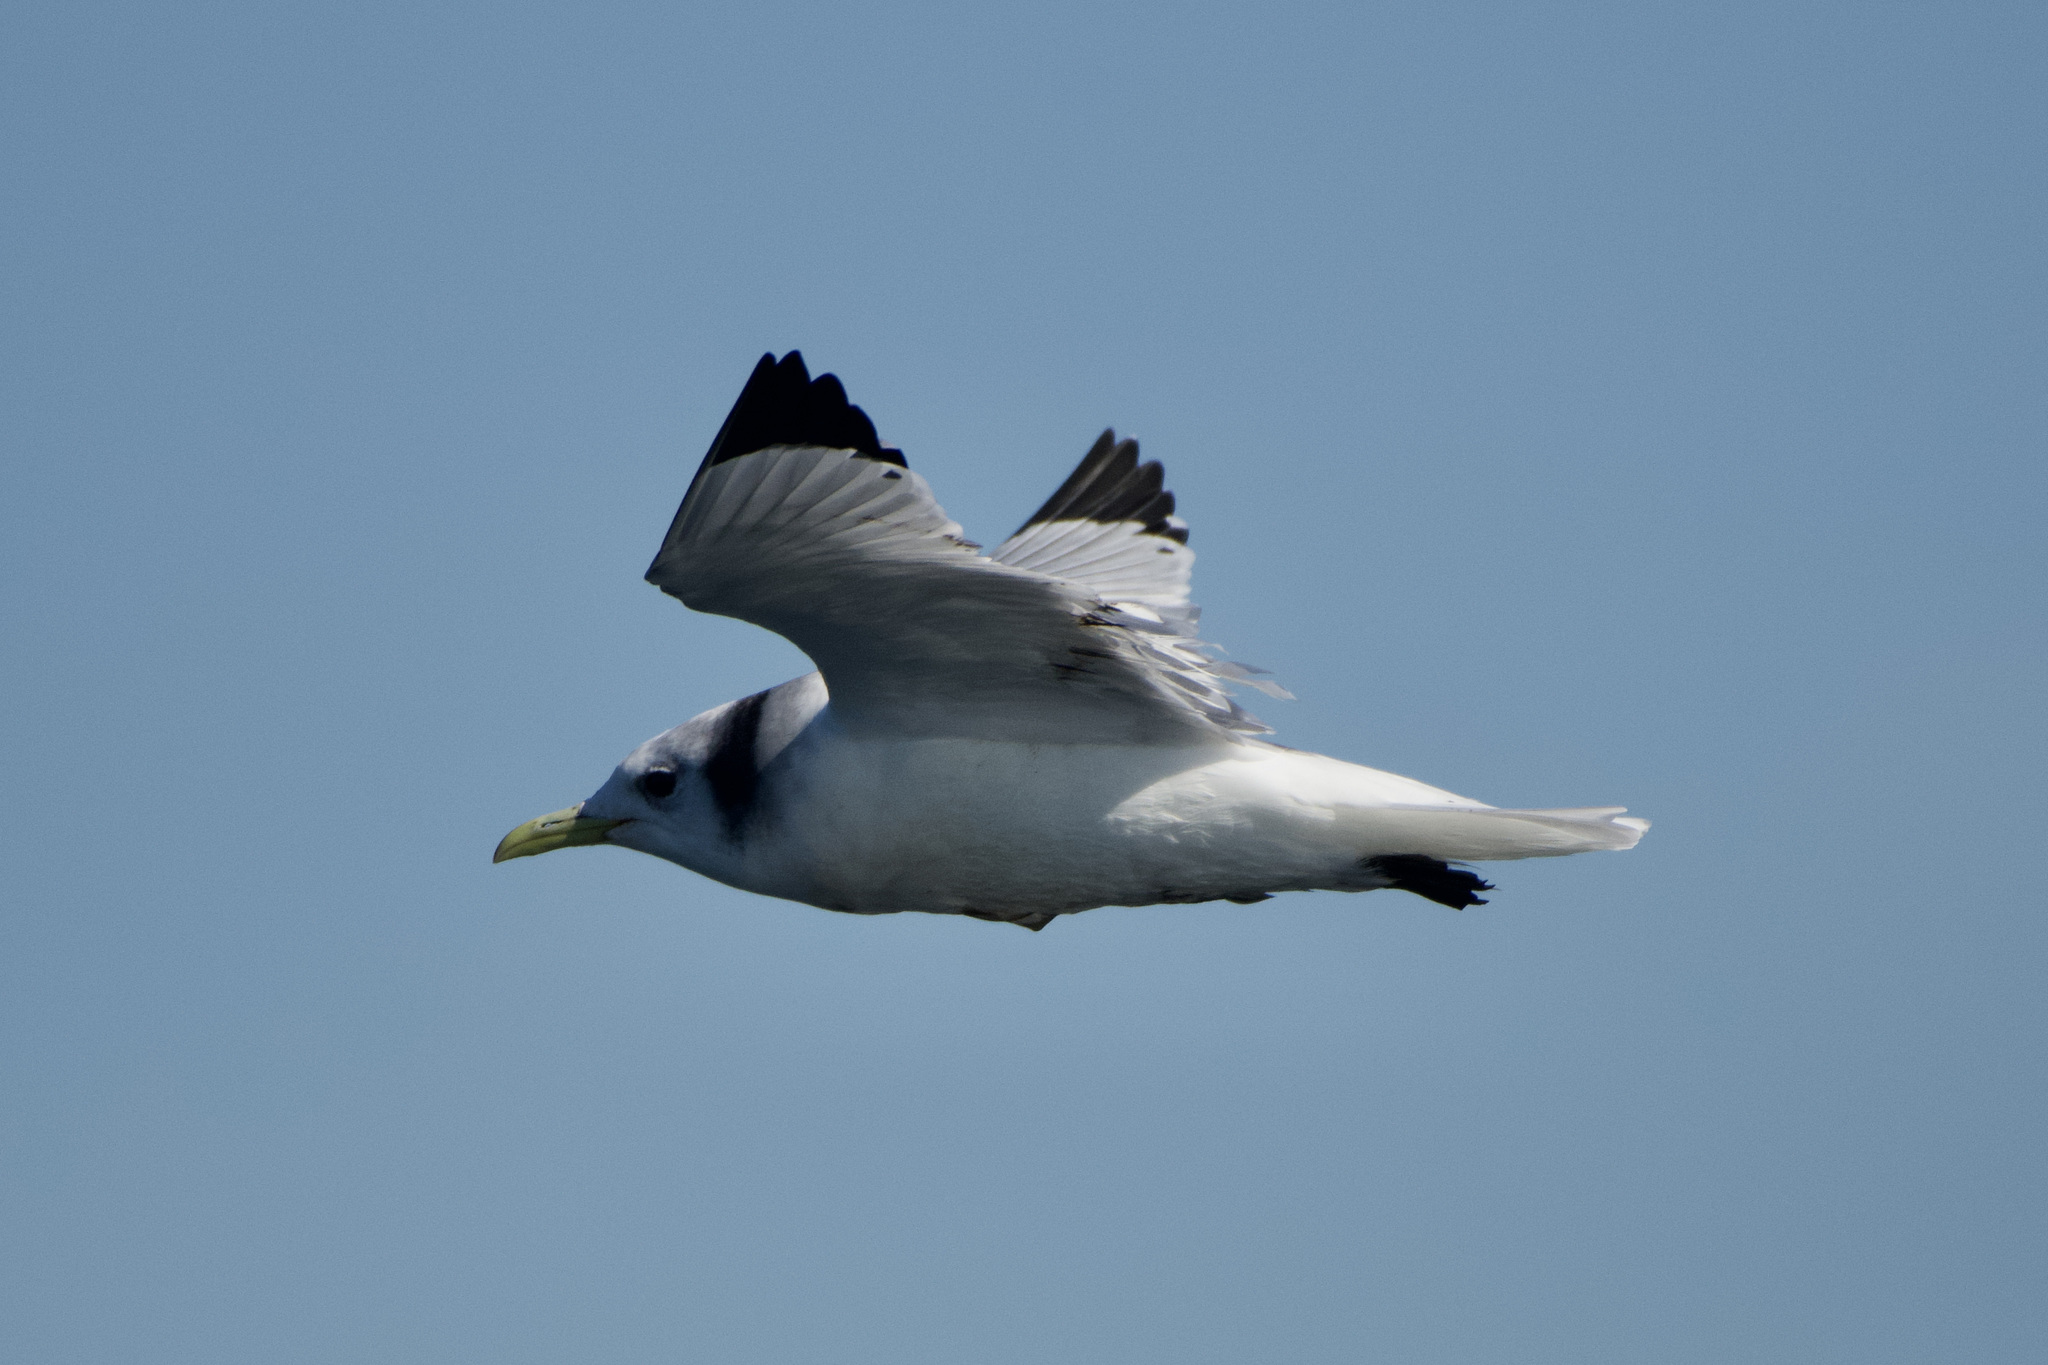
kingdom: Animalia
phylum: Chordata
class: Aves
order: Charadriiformes
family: Laridae
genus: Rissa
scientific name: Rissa tridactyla
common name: Black-legged kittiwake
